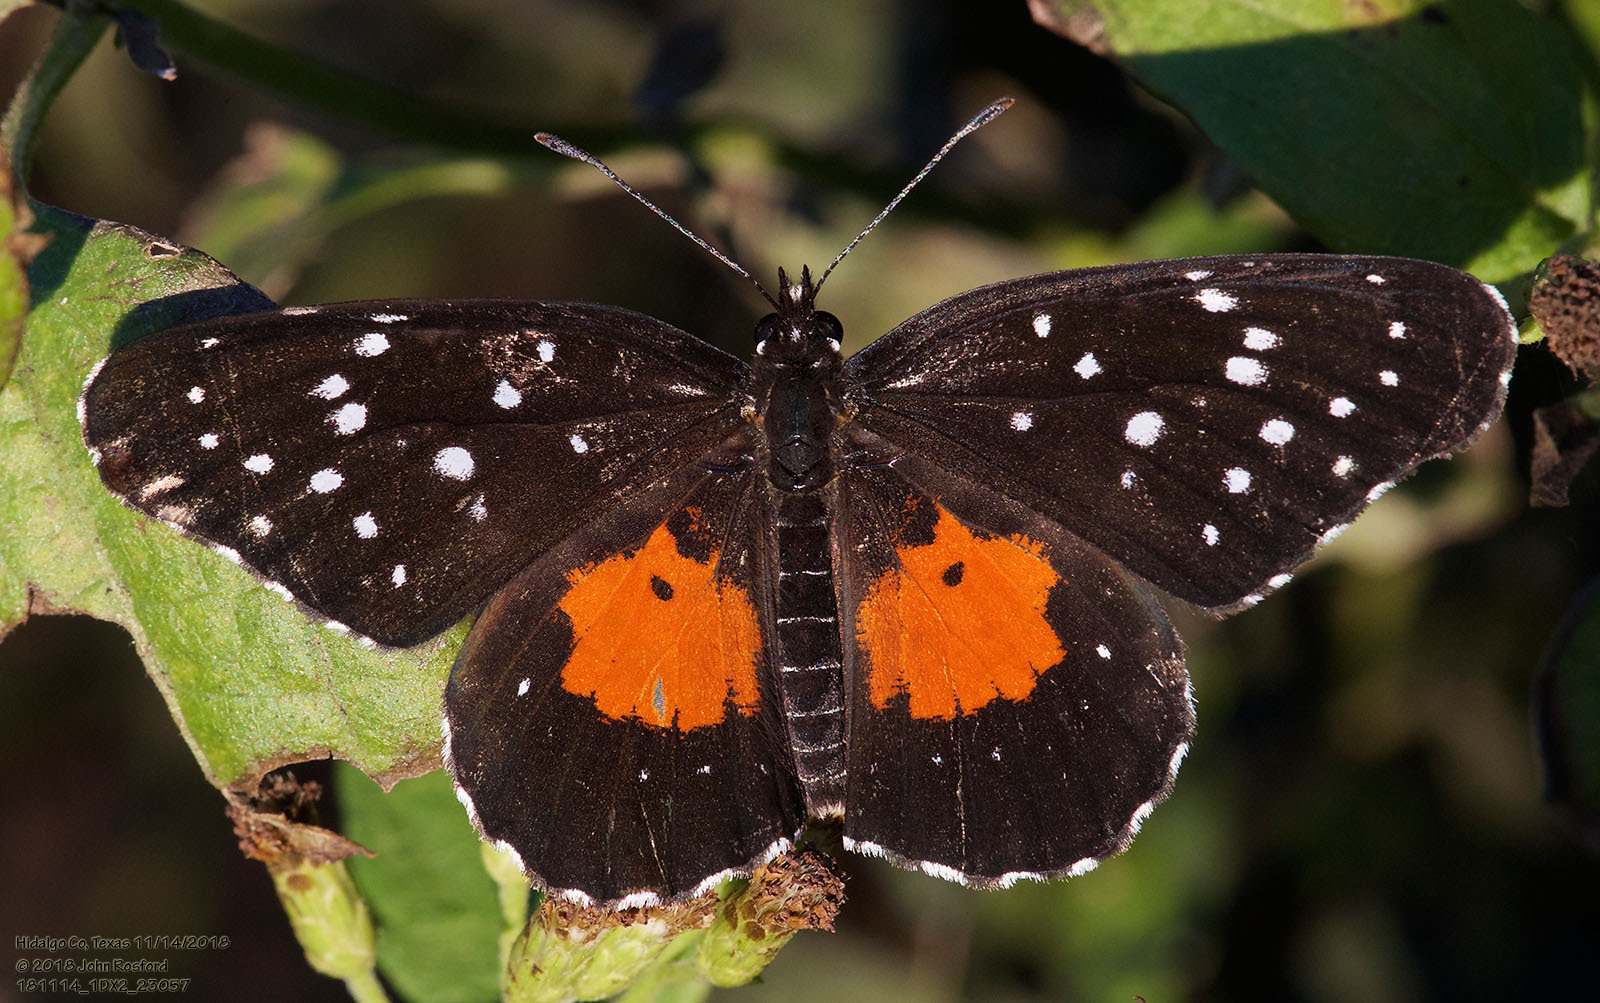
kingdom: Animalia
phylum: Arthropoda
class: Insecta
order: Lepidoptera
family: Nymphalidae
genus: Chlosyne
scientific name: Chlosyne janais
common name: Crimson patch
